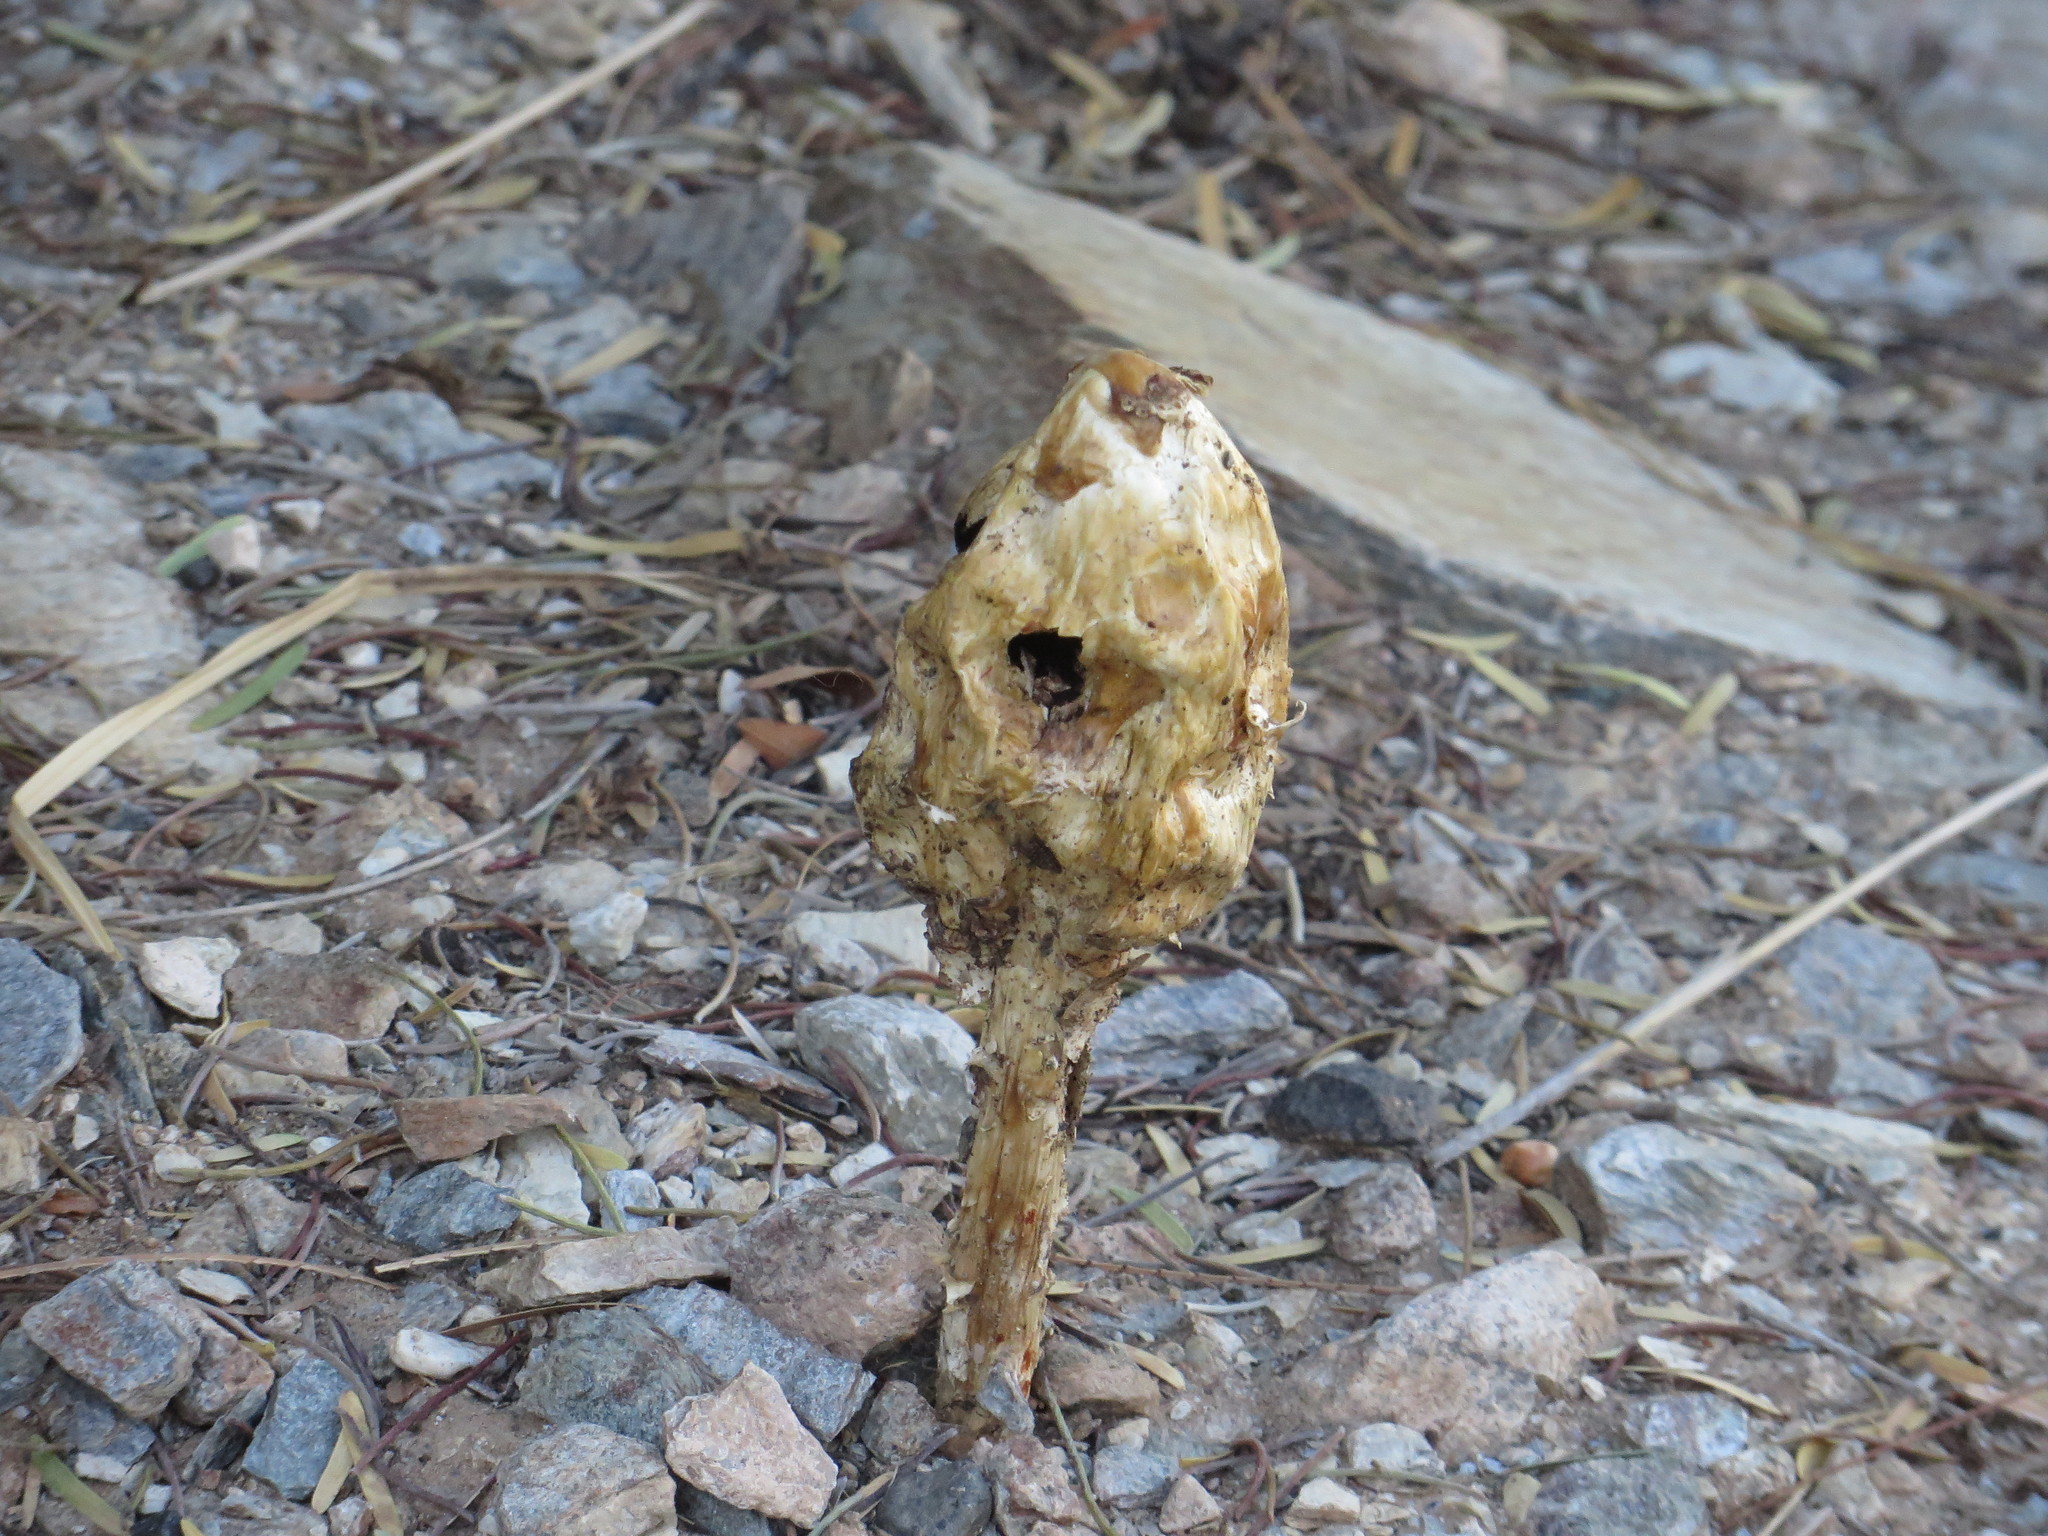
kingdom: Fungi
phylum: Basidiomycota
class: Agaricomycetes
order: Agaricales
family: Agaricaceae
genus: Podaxis
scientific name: Podaxis pistillaris
